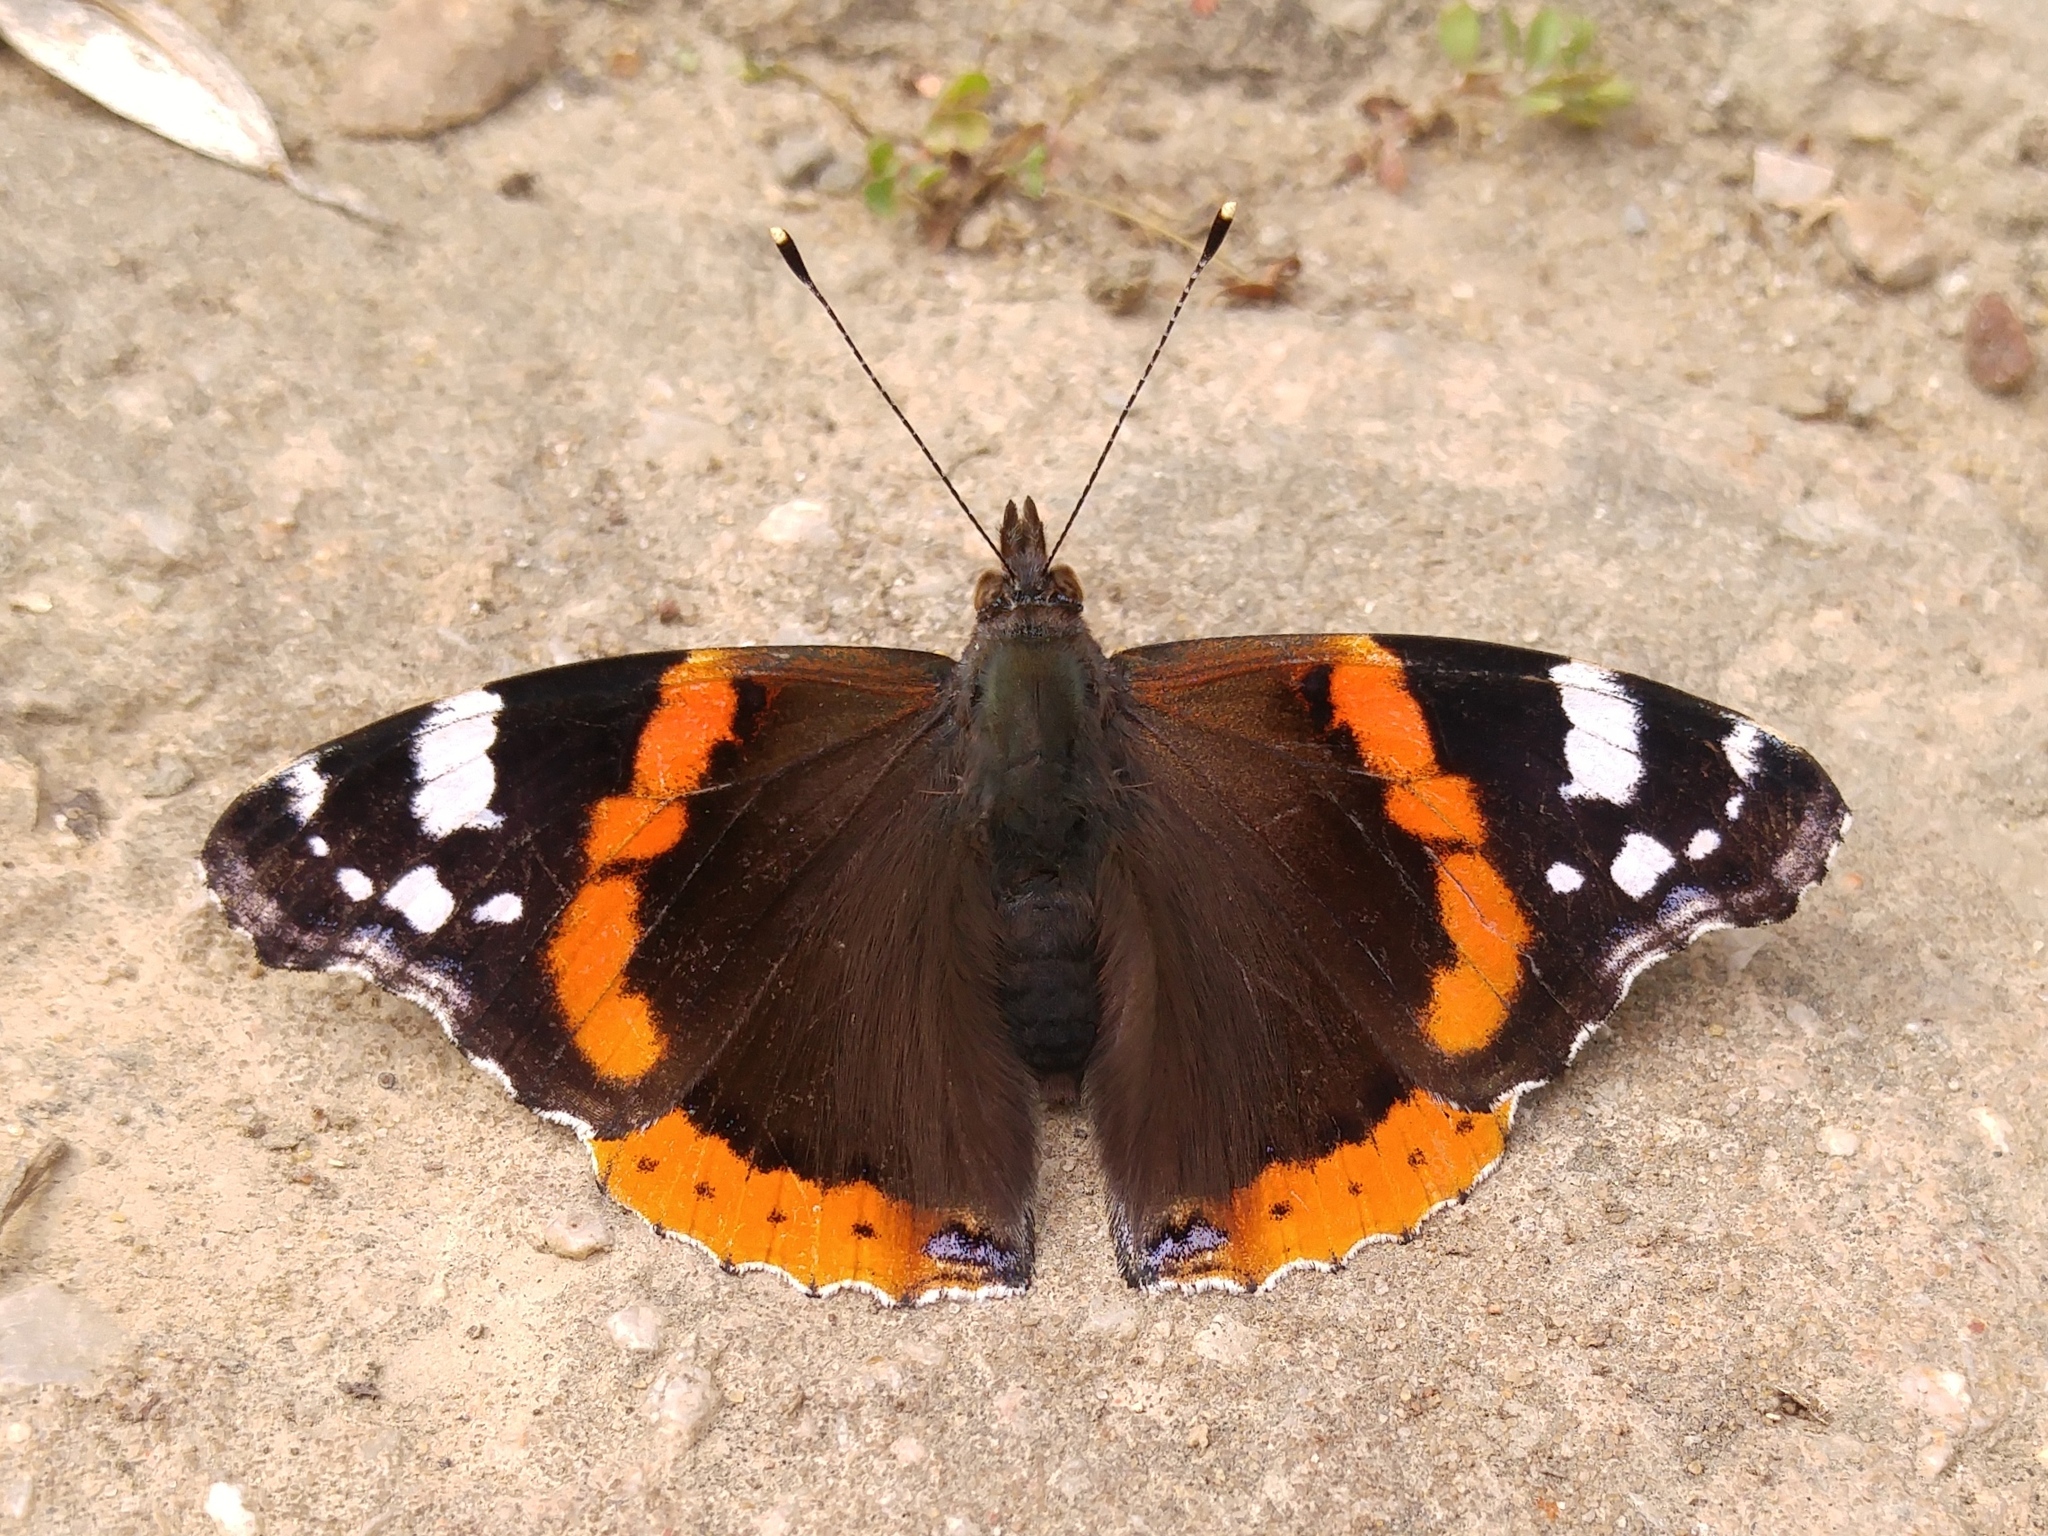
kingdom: Animalia
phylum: Arthropoda
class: Insecta
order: Lepidoptera
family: Nymphalidae
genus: Vanessa
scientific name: Vanessa atalanta
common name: Red admiral
